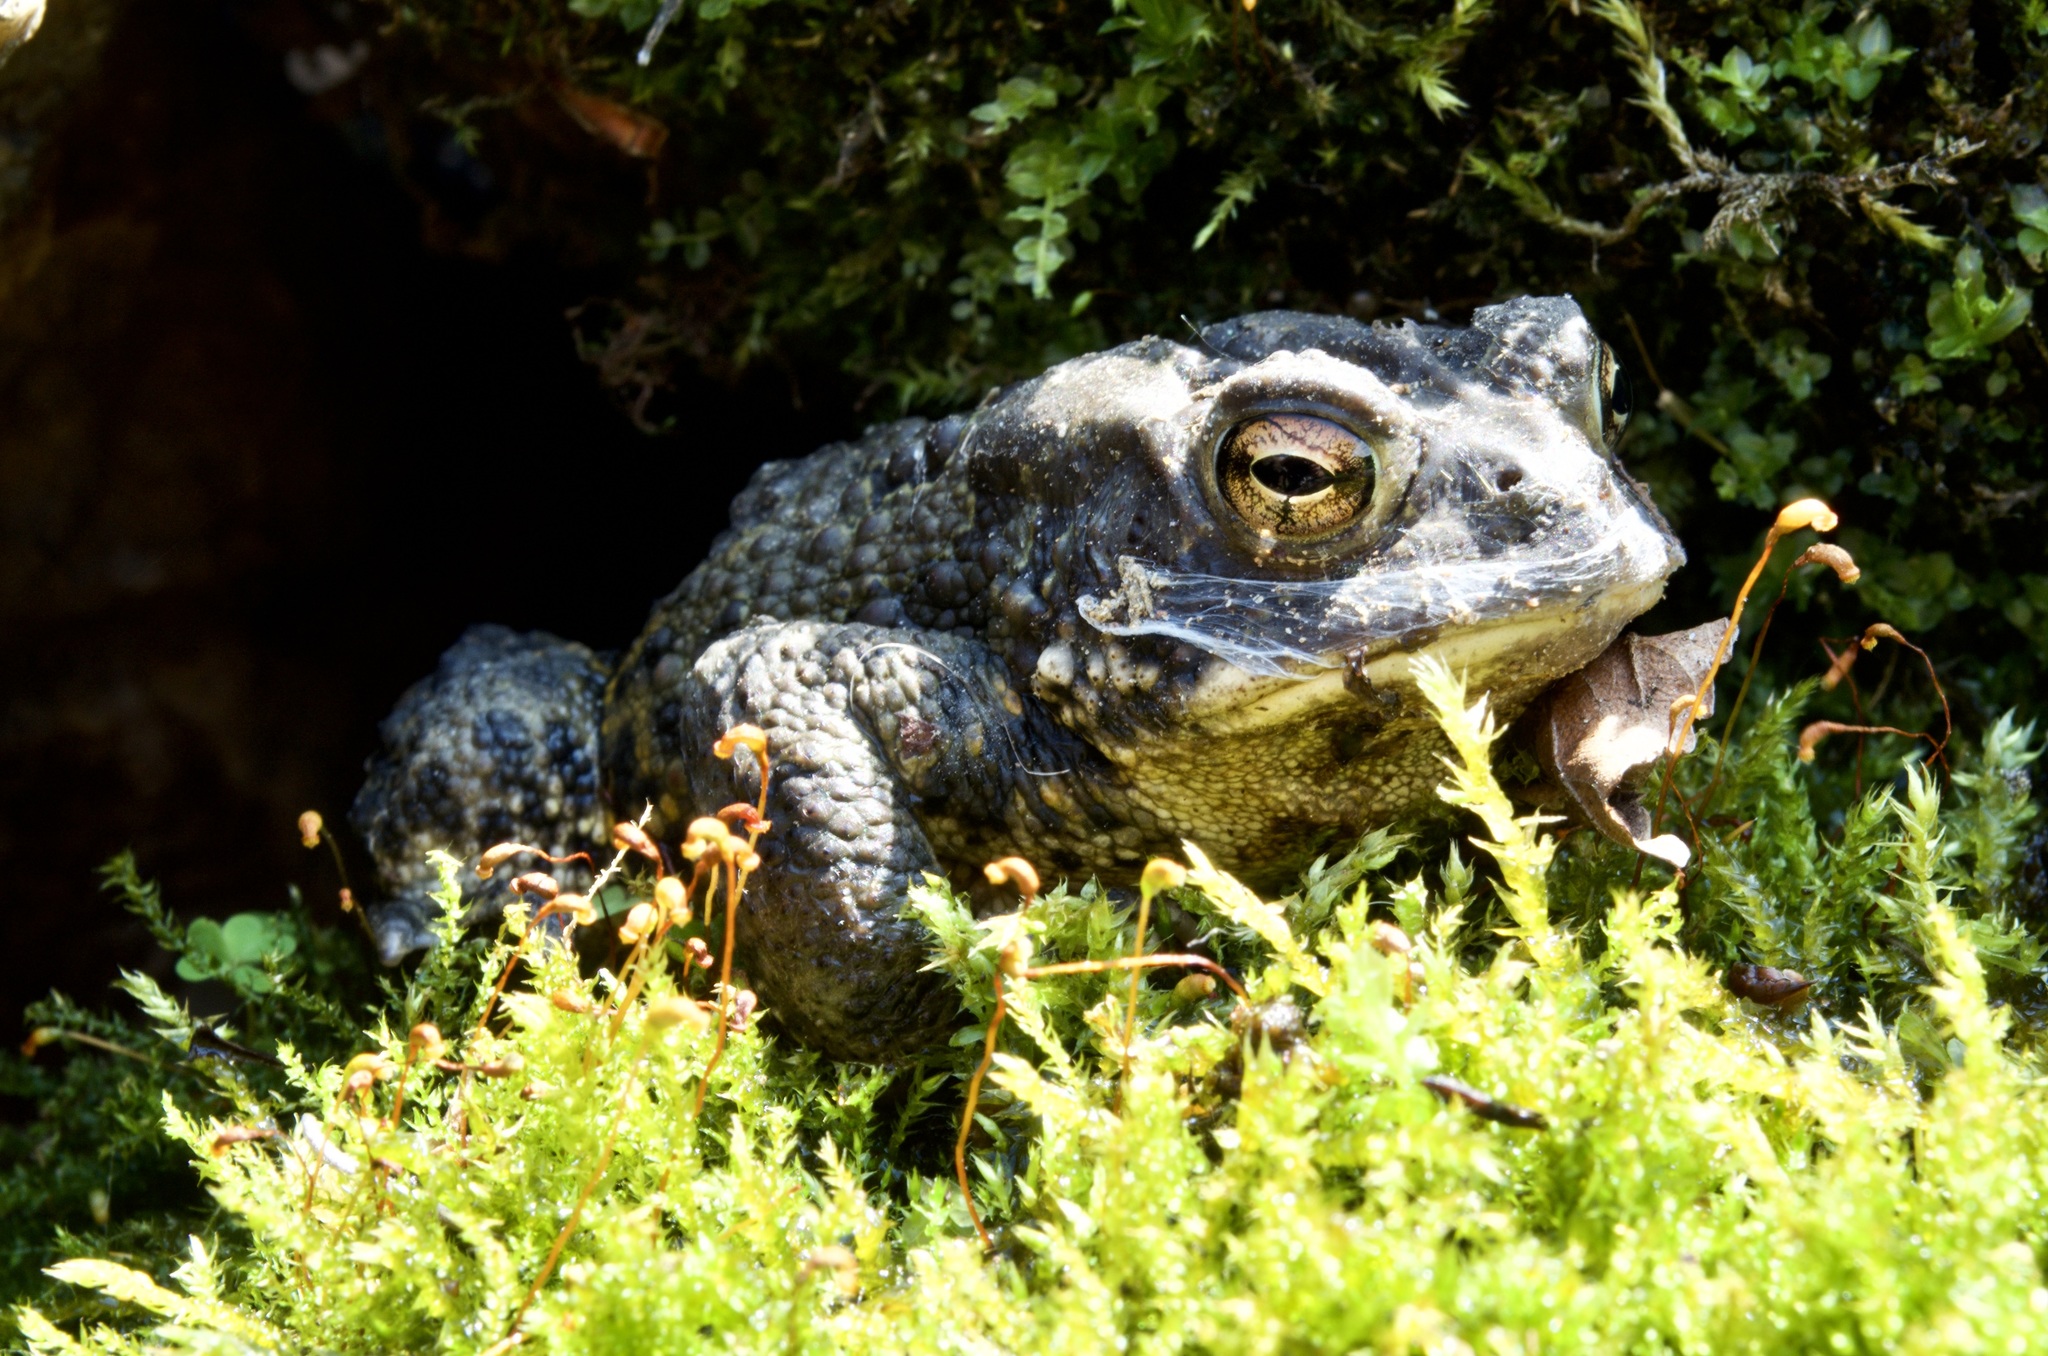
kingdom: Animalia
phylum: Chordata
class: Amphibia
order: Anura
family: Bufonidae
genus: Anaxyrus
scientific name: Anaxyrus americanus
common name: American toad
